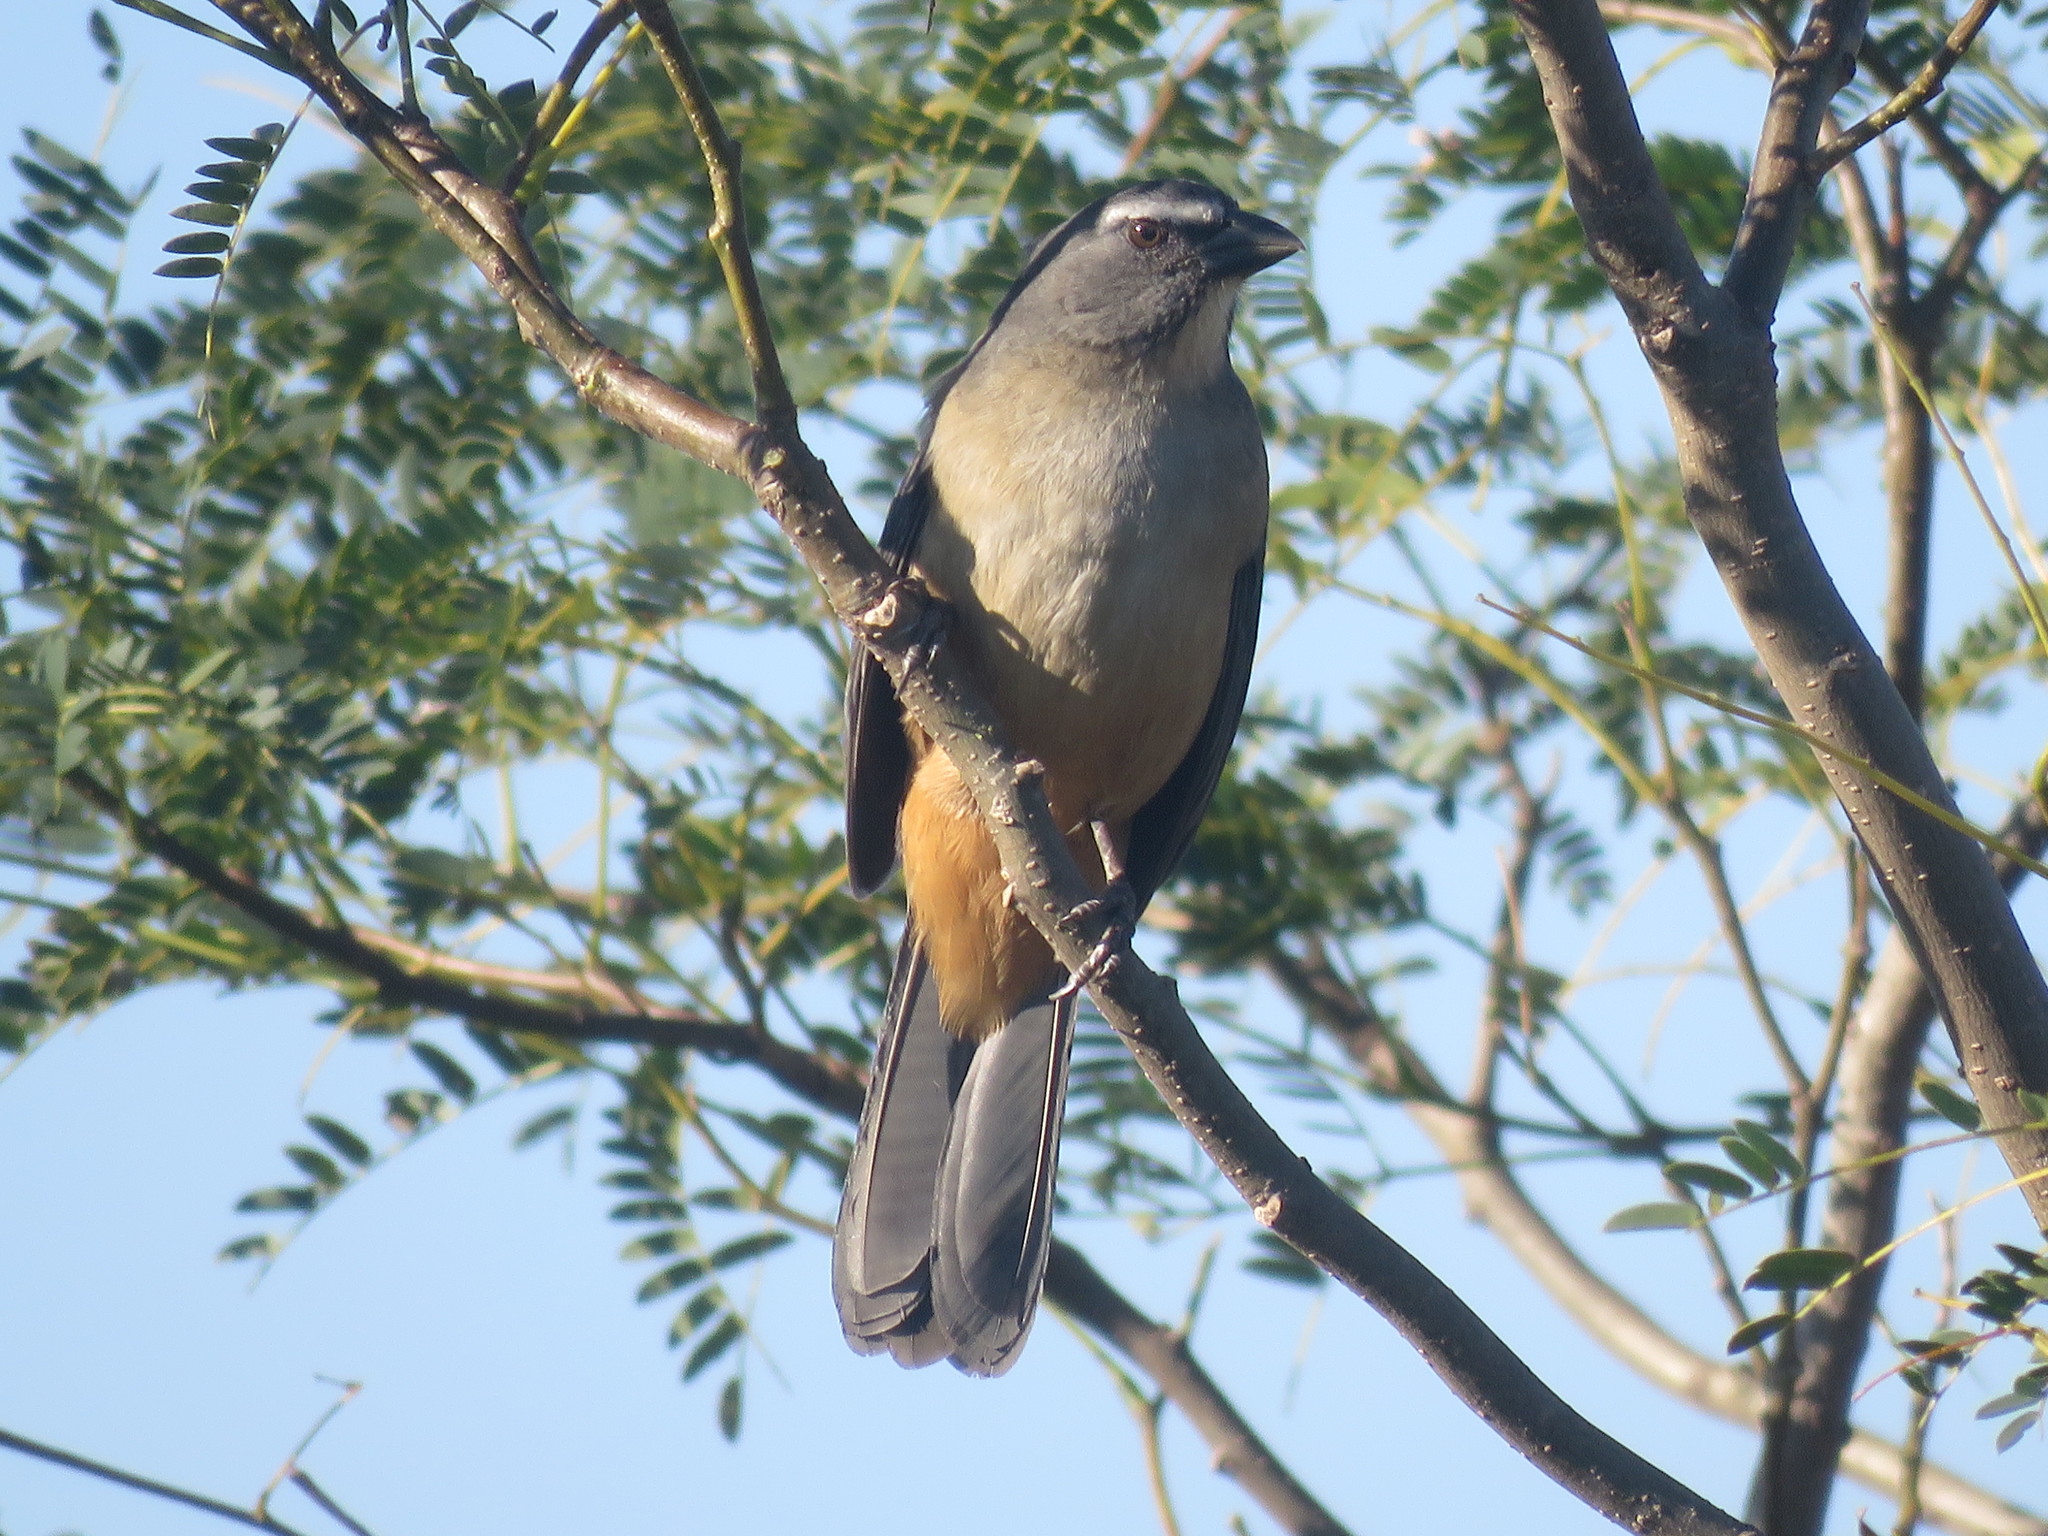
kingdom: Animalia
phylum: Chordata
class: Aves
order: Passeriformes
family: Thraupidae
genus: Saltator
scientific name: Saltator coerulescens
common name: Grayish saltator
